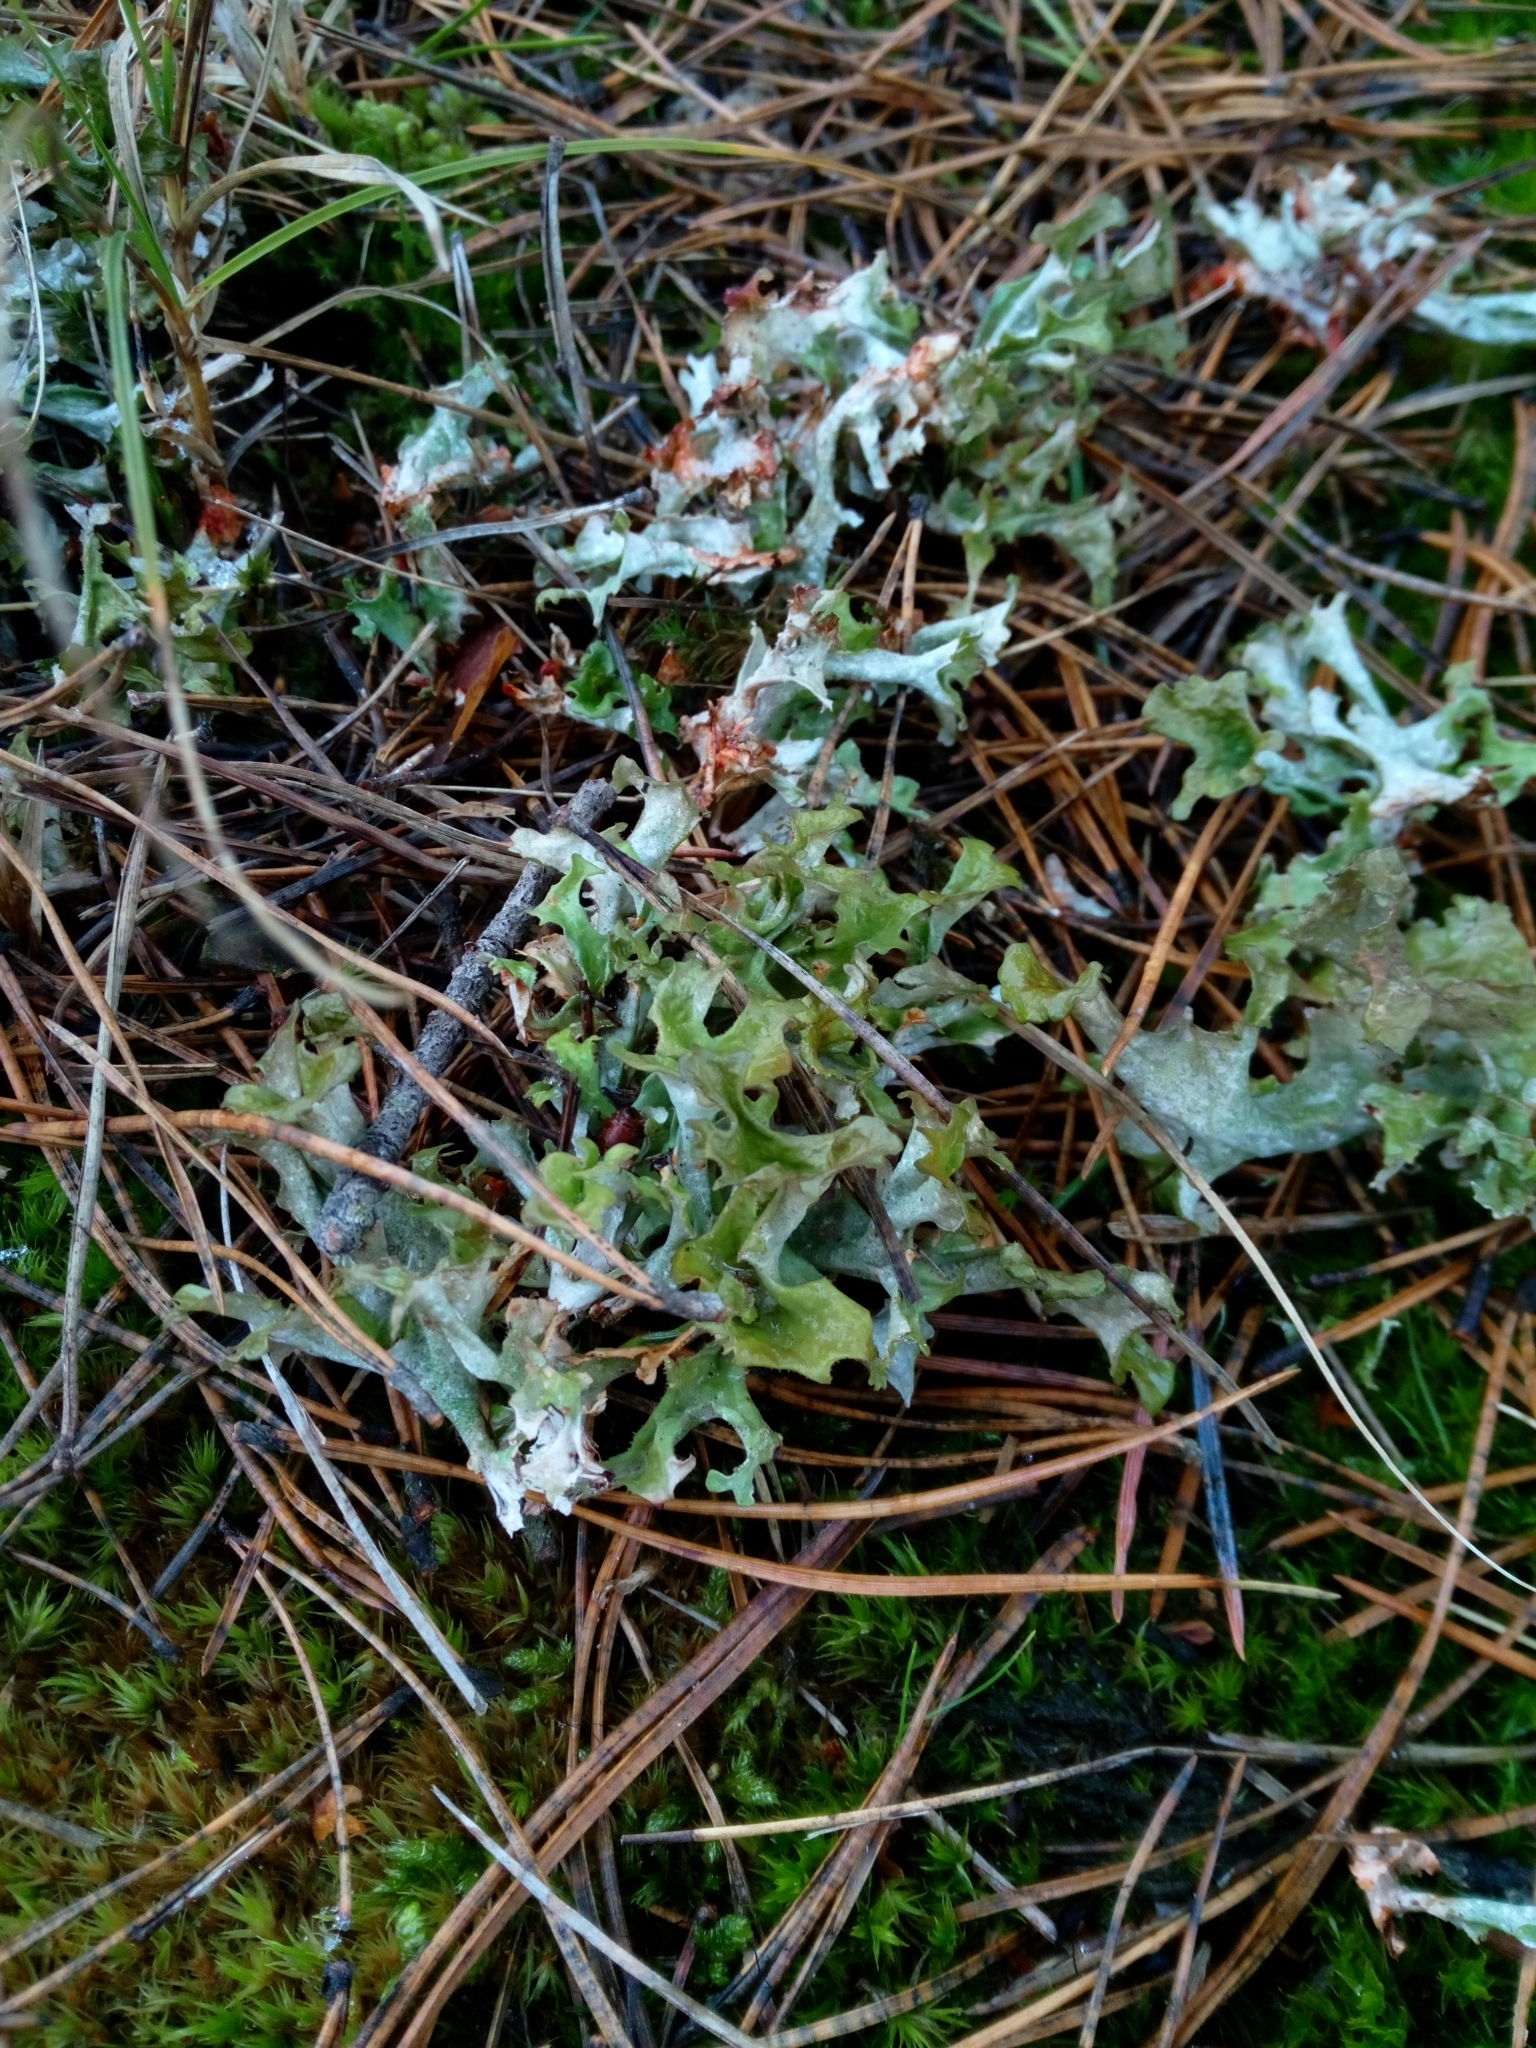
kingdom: Fungi
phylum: Ascomycota
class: Lecanoromycetes
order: Lecanorales
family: Parmeliaceae
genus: Cetraria
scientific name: Cetraria islandica
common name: Iceland lichen
